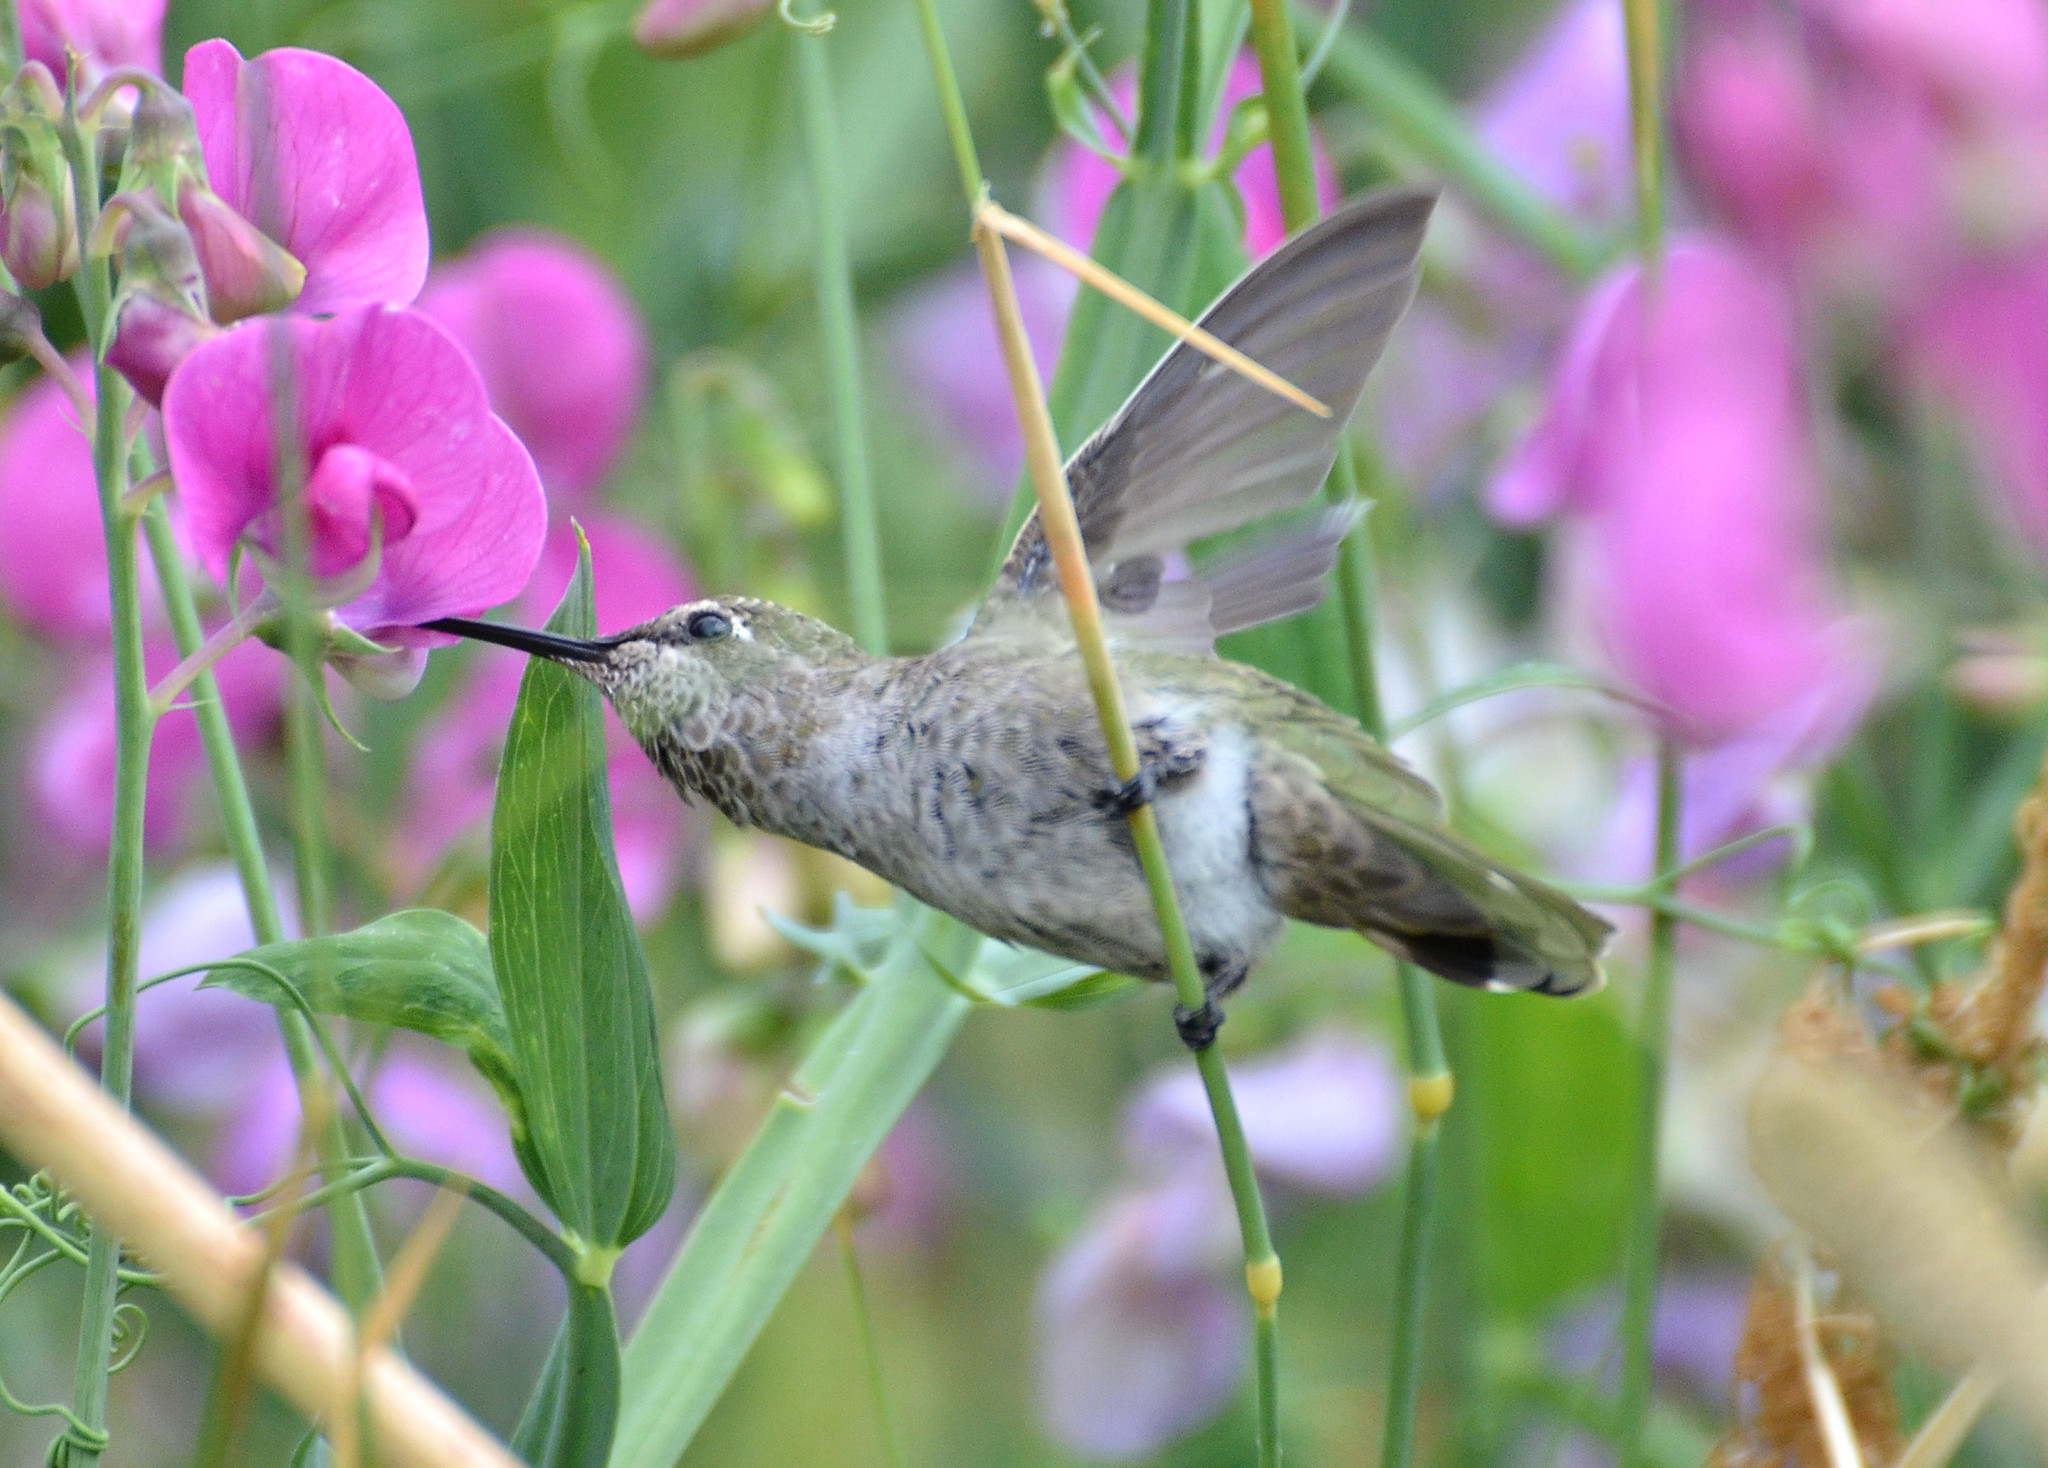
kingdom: Animalia
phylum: Chordata
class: Aves
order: Apodiformes
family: Trochilidae
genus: Calypte
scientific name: Calypte anna
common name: Anna's hummingbird
